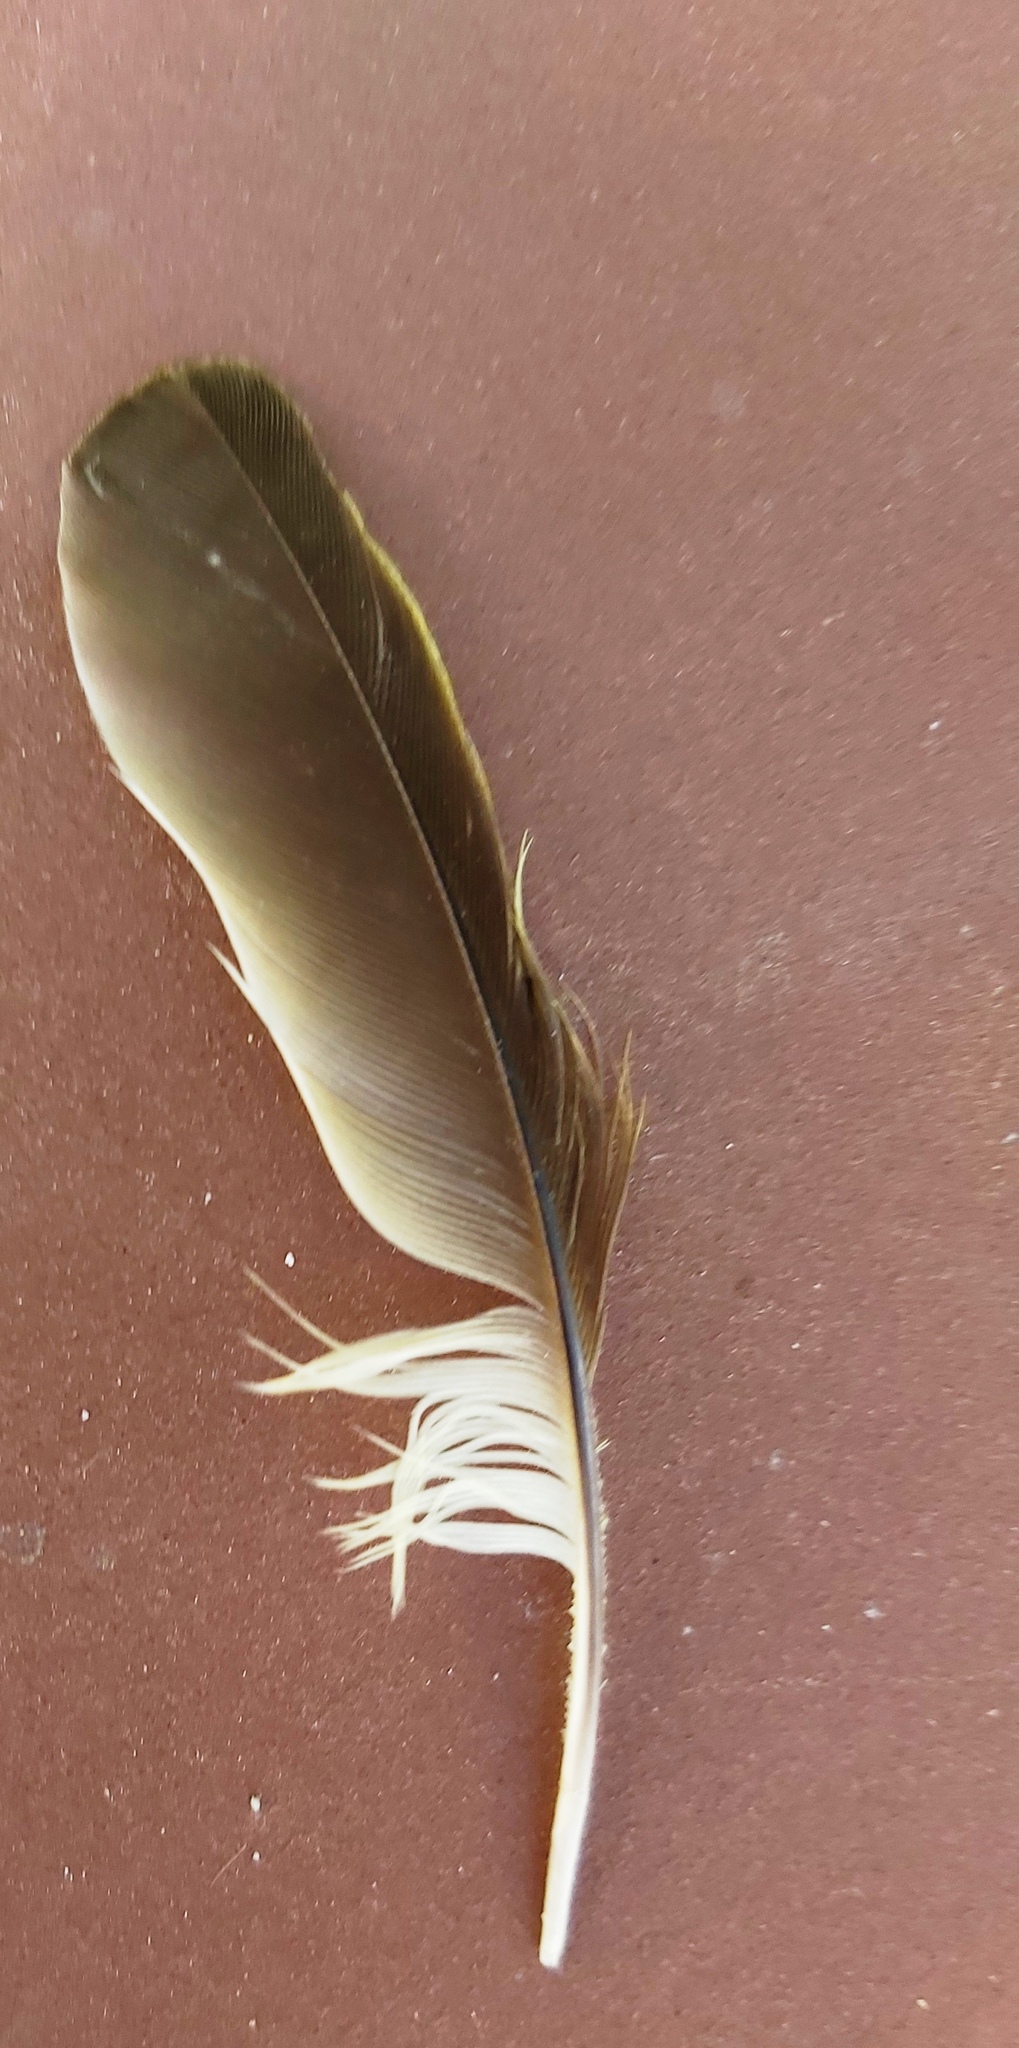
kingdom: Animalia
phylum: Chordata
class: Aves
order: Passeriformes
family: Fringillidae
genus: Serinus
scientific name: Serinus canicollis
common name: Cape canary
